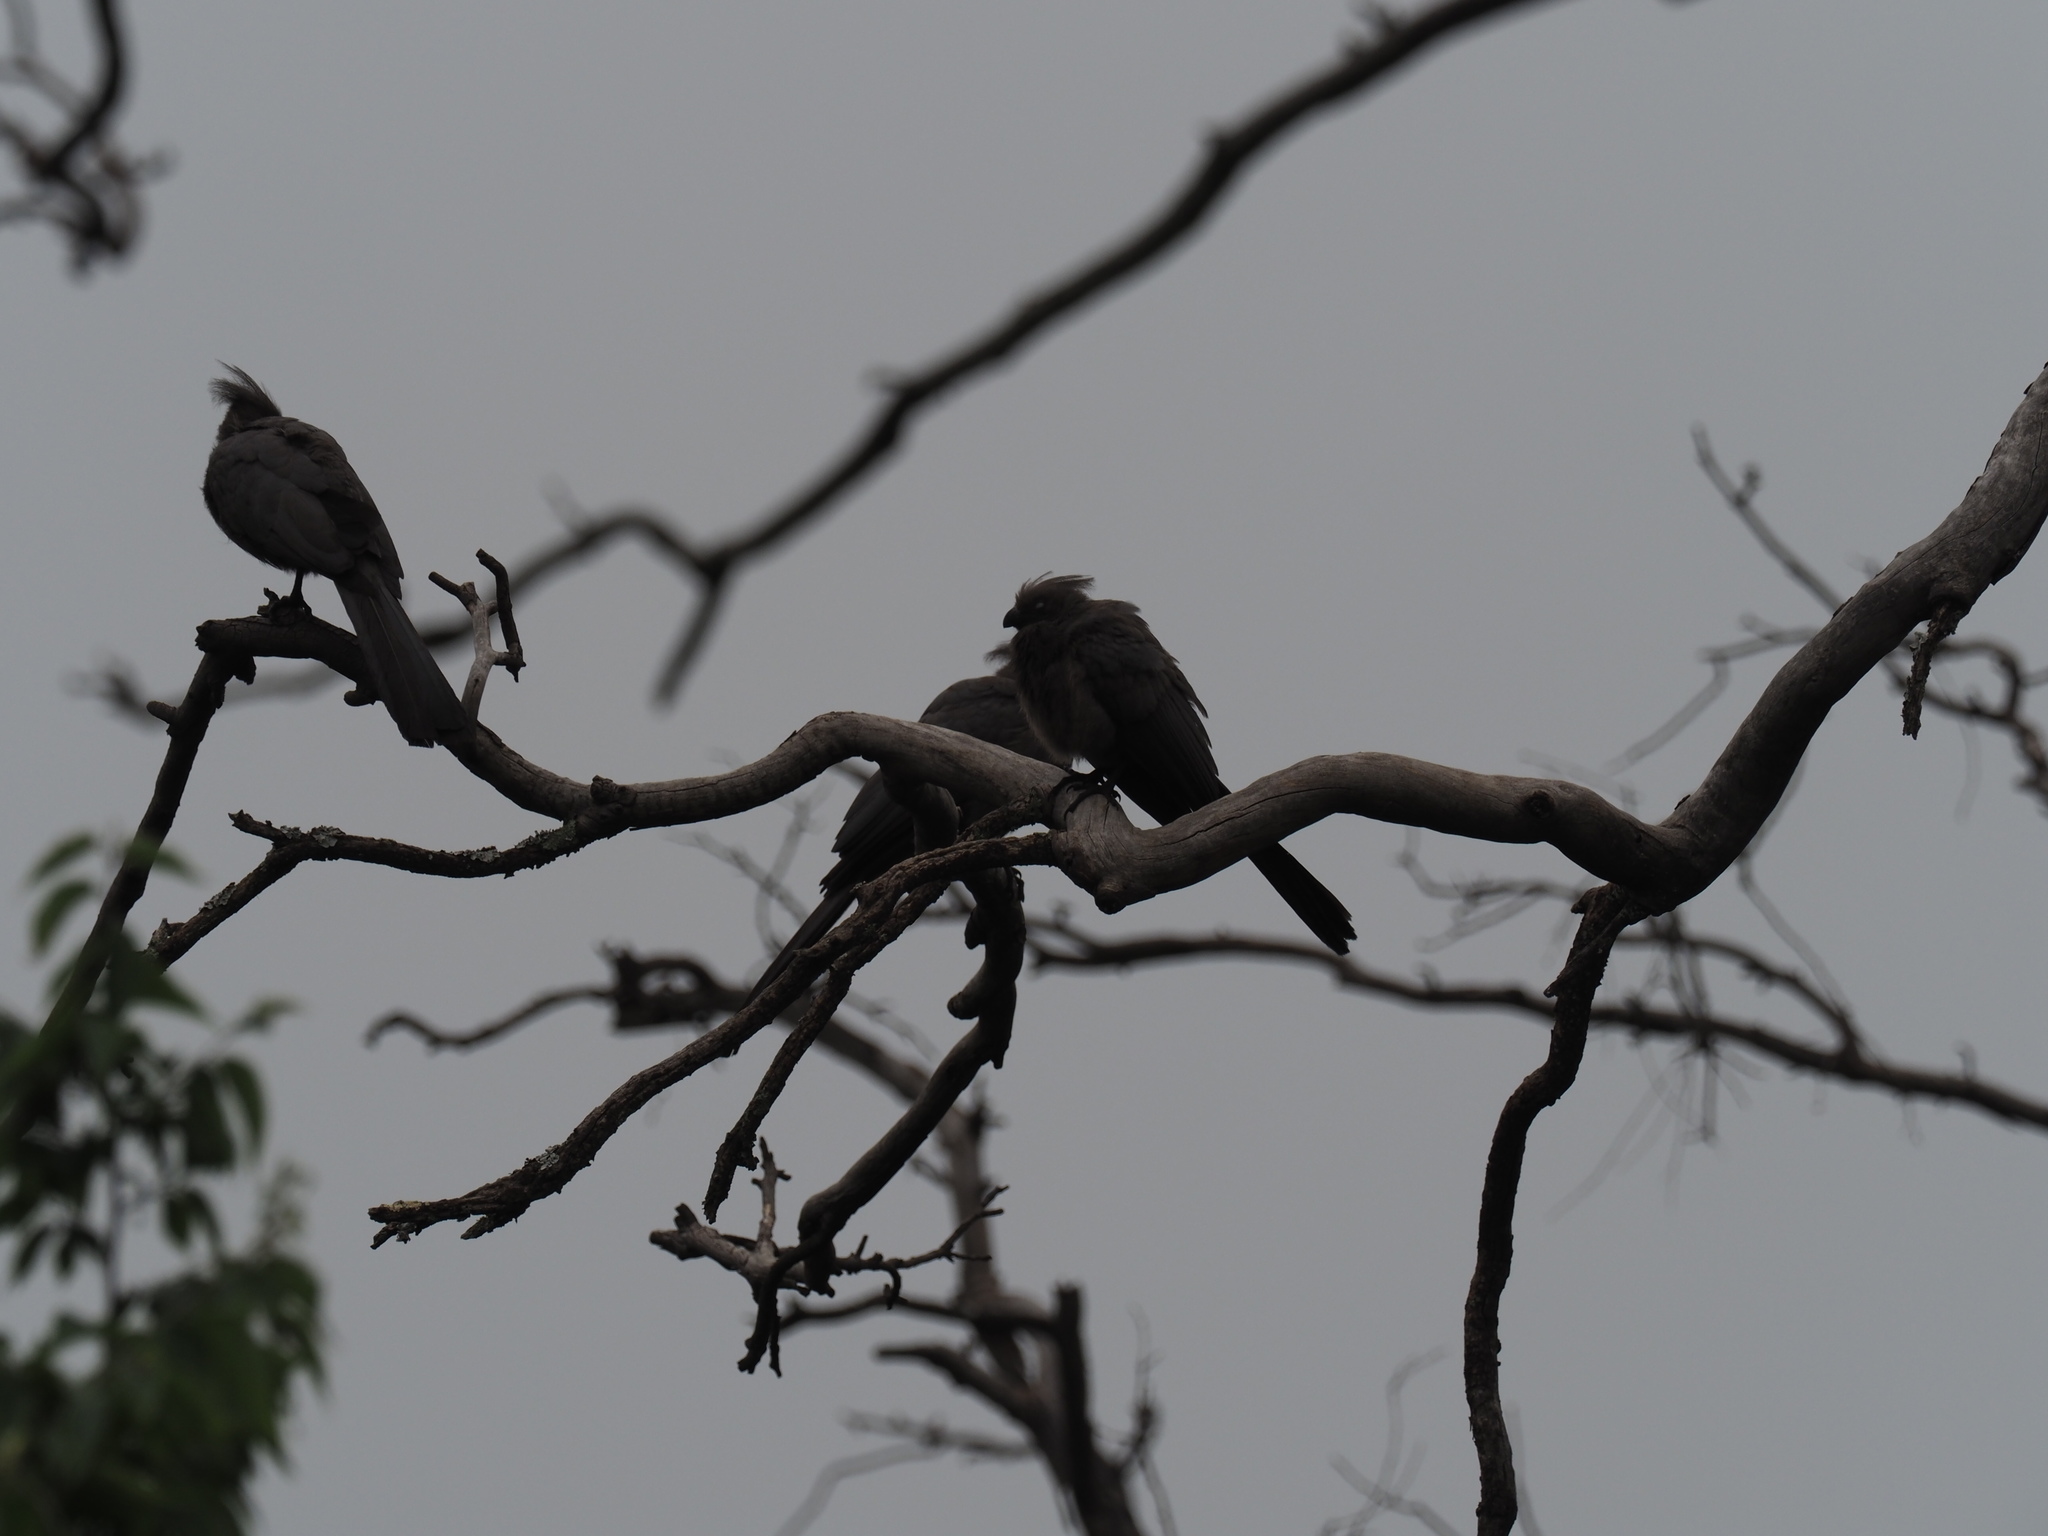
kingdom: Animalia
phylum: Chordata
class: Aves
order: Musophagiformes
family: Musophagidae
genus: Corythaixoides
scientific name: Corythaixoides concolor
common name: Grey go-away-bird
